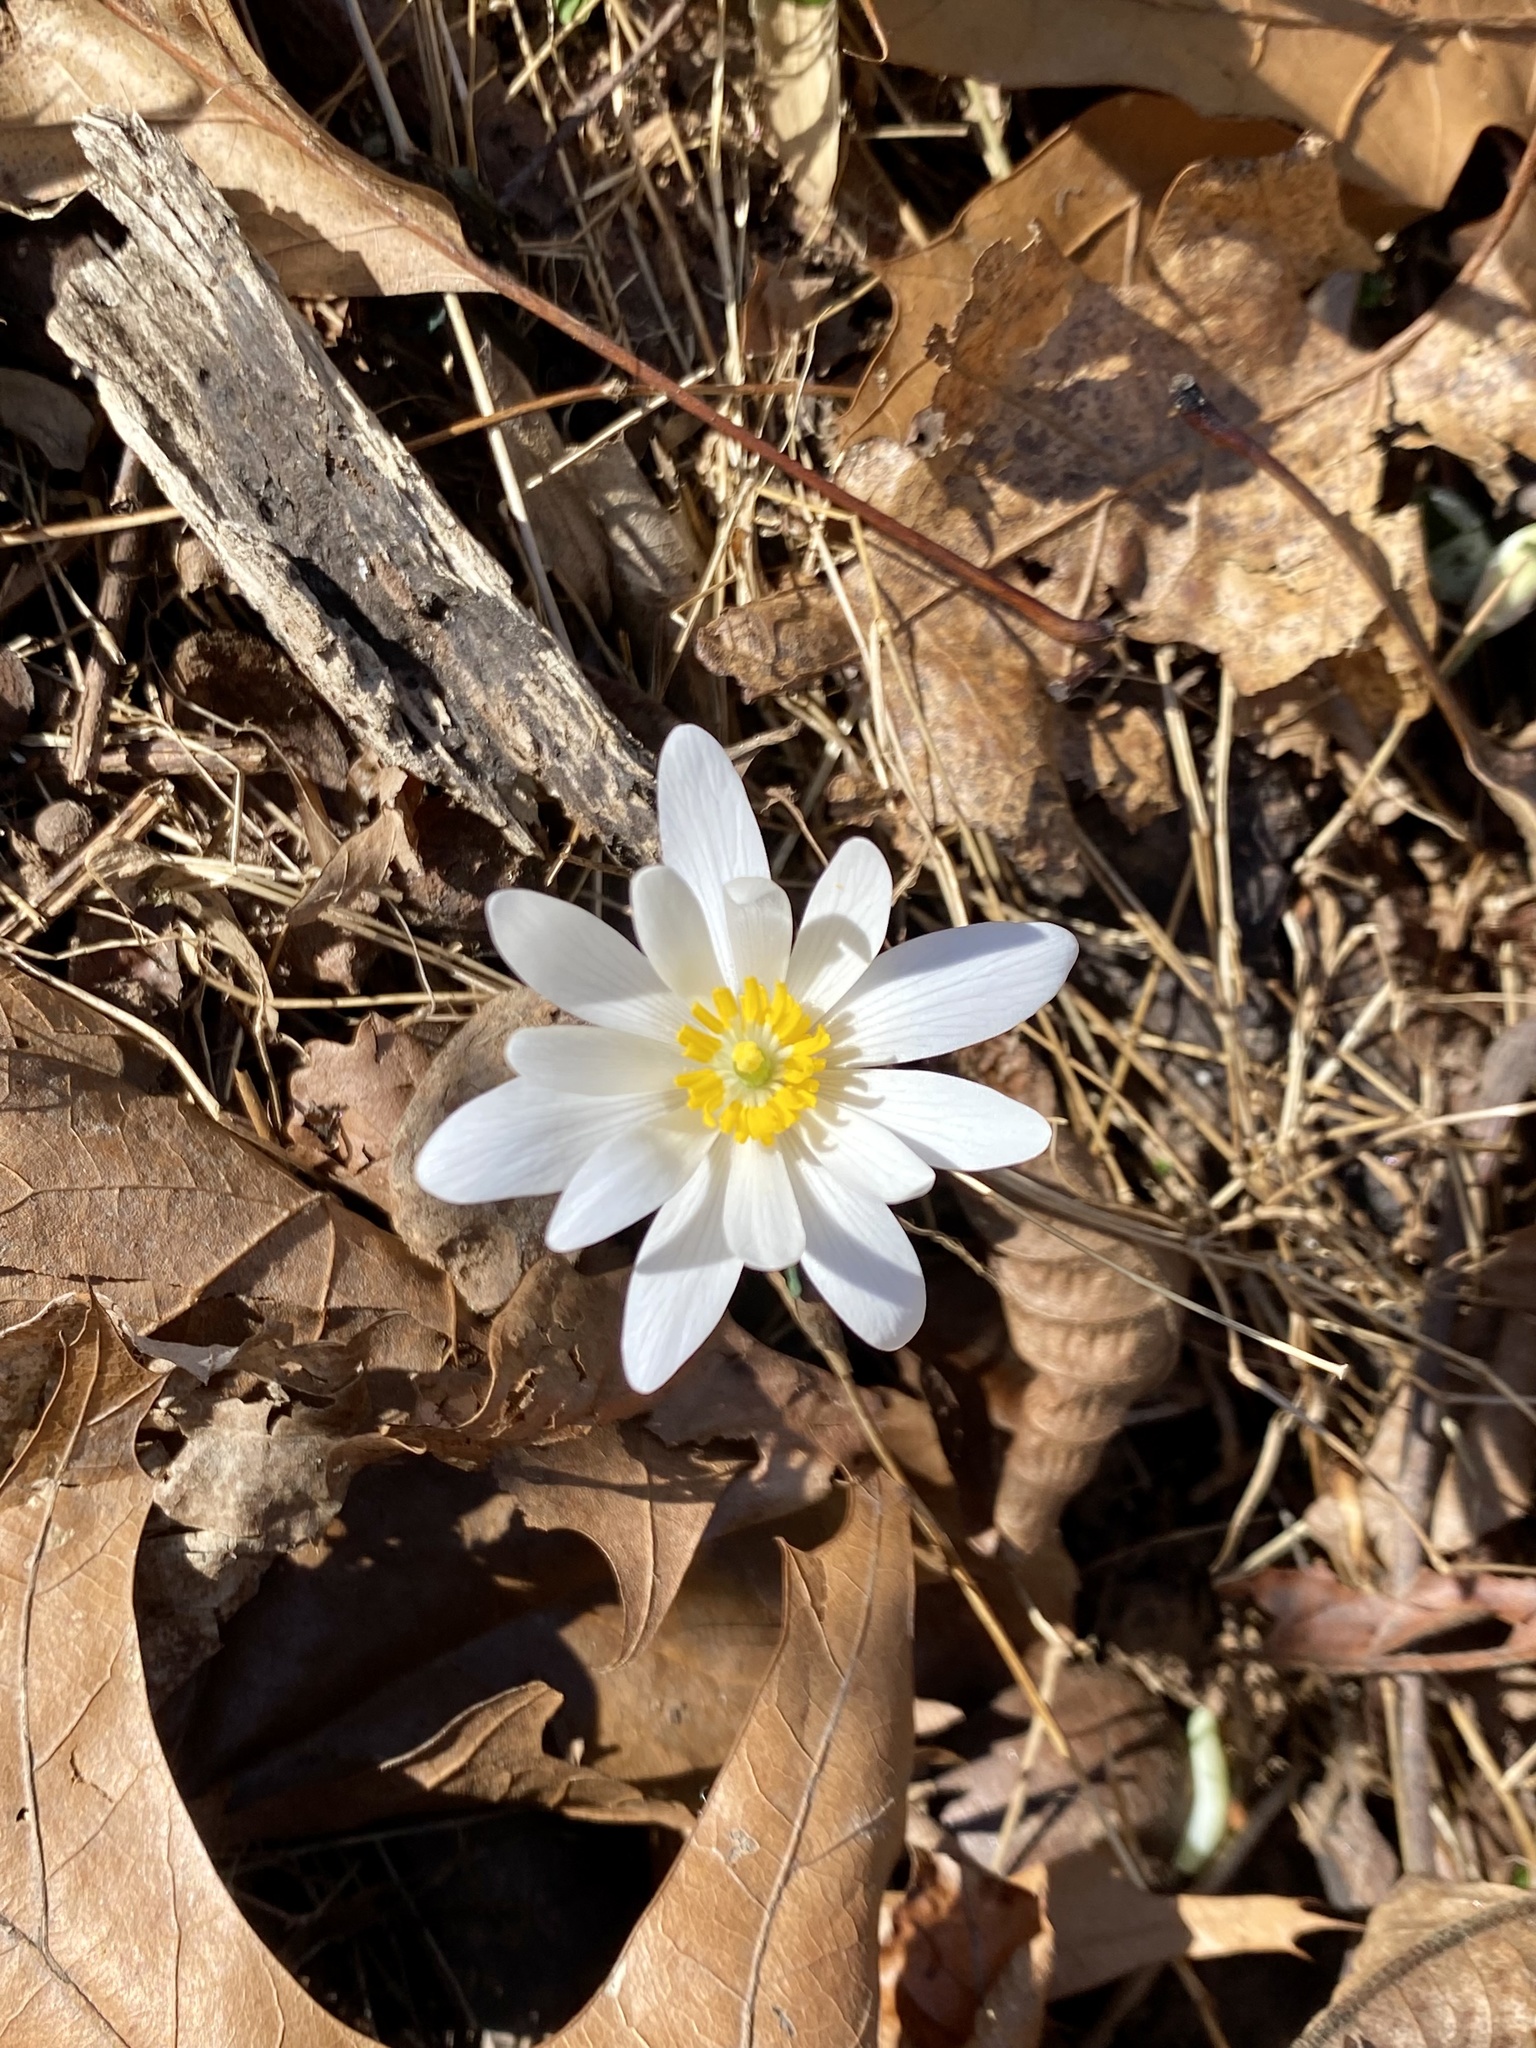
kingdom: Plantae
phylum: Tracheophyta
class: Magnoliopsida
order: Ranunculales
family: Papaveraceae
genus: Sanguinaria
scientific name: Sanguinaria canadensis
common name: Bloodroot
